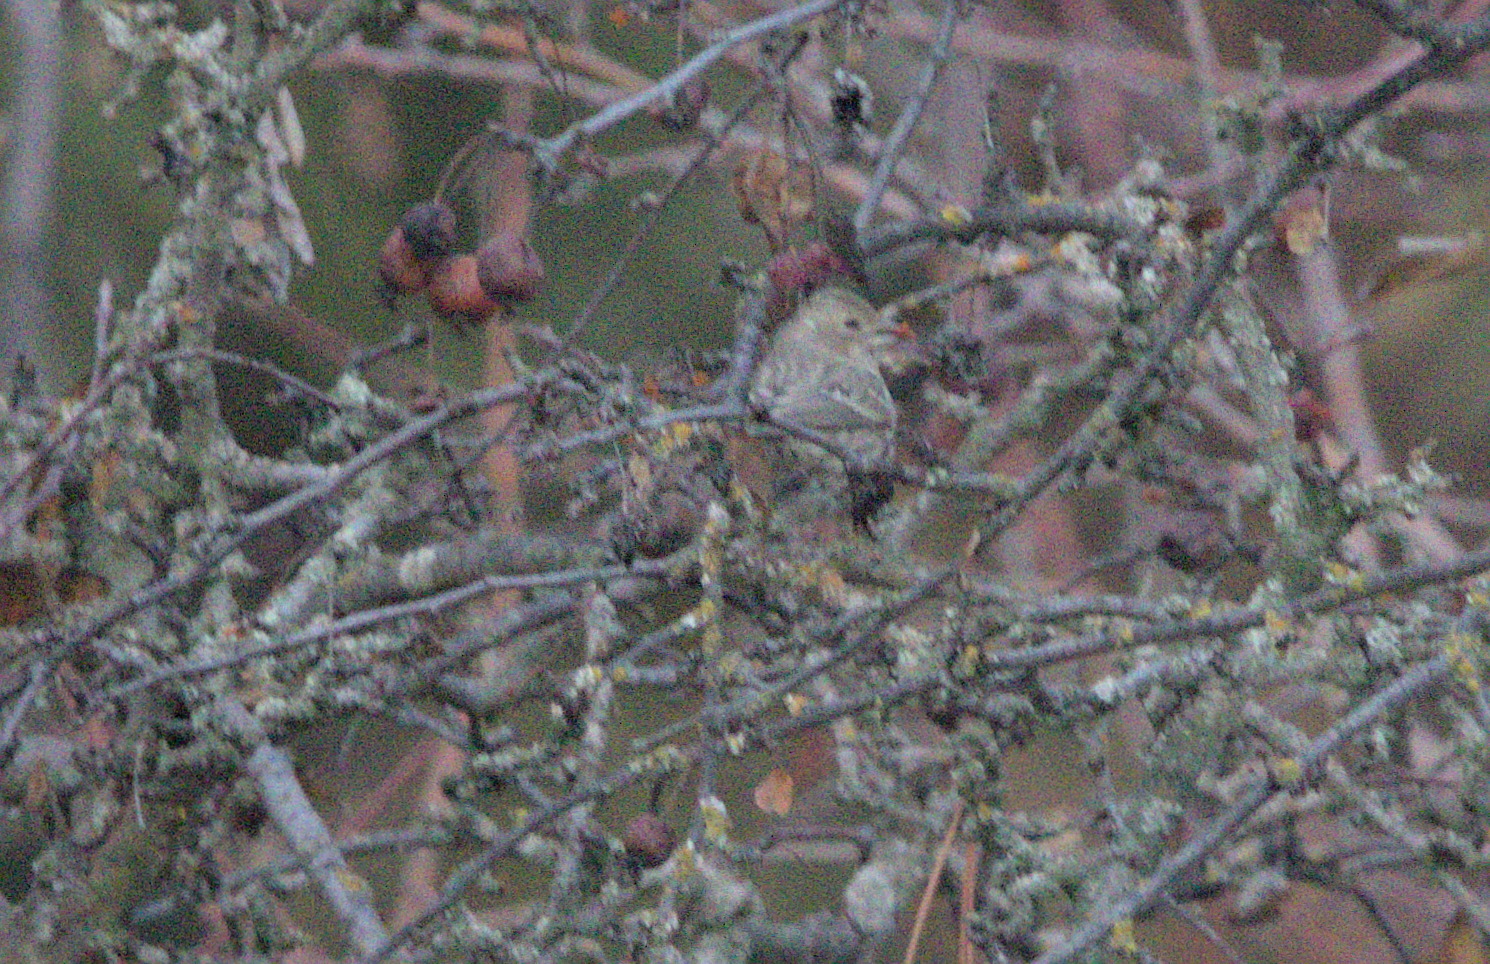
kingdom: Animalia
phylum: Chordata
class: Aves
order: Passeriformes
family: Fringillidae
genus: Haemorhous
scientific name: Haemorhous mexicanus
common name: House finch
